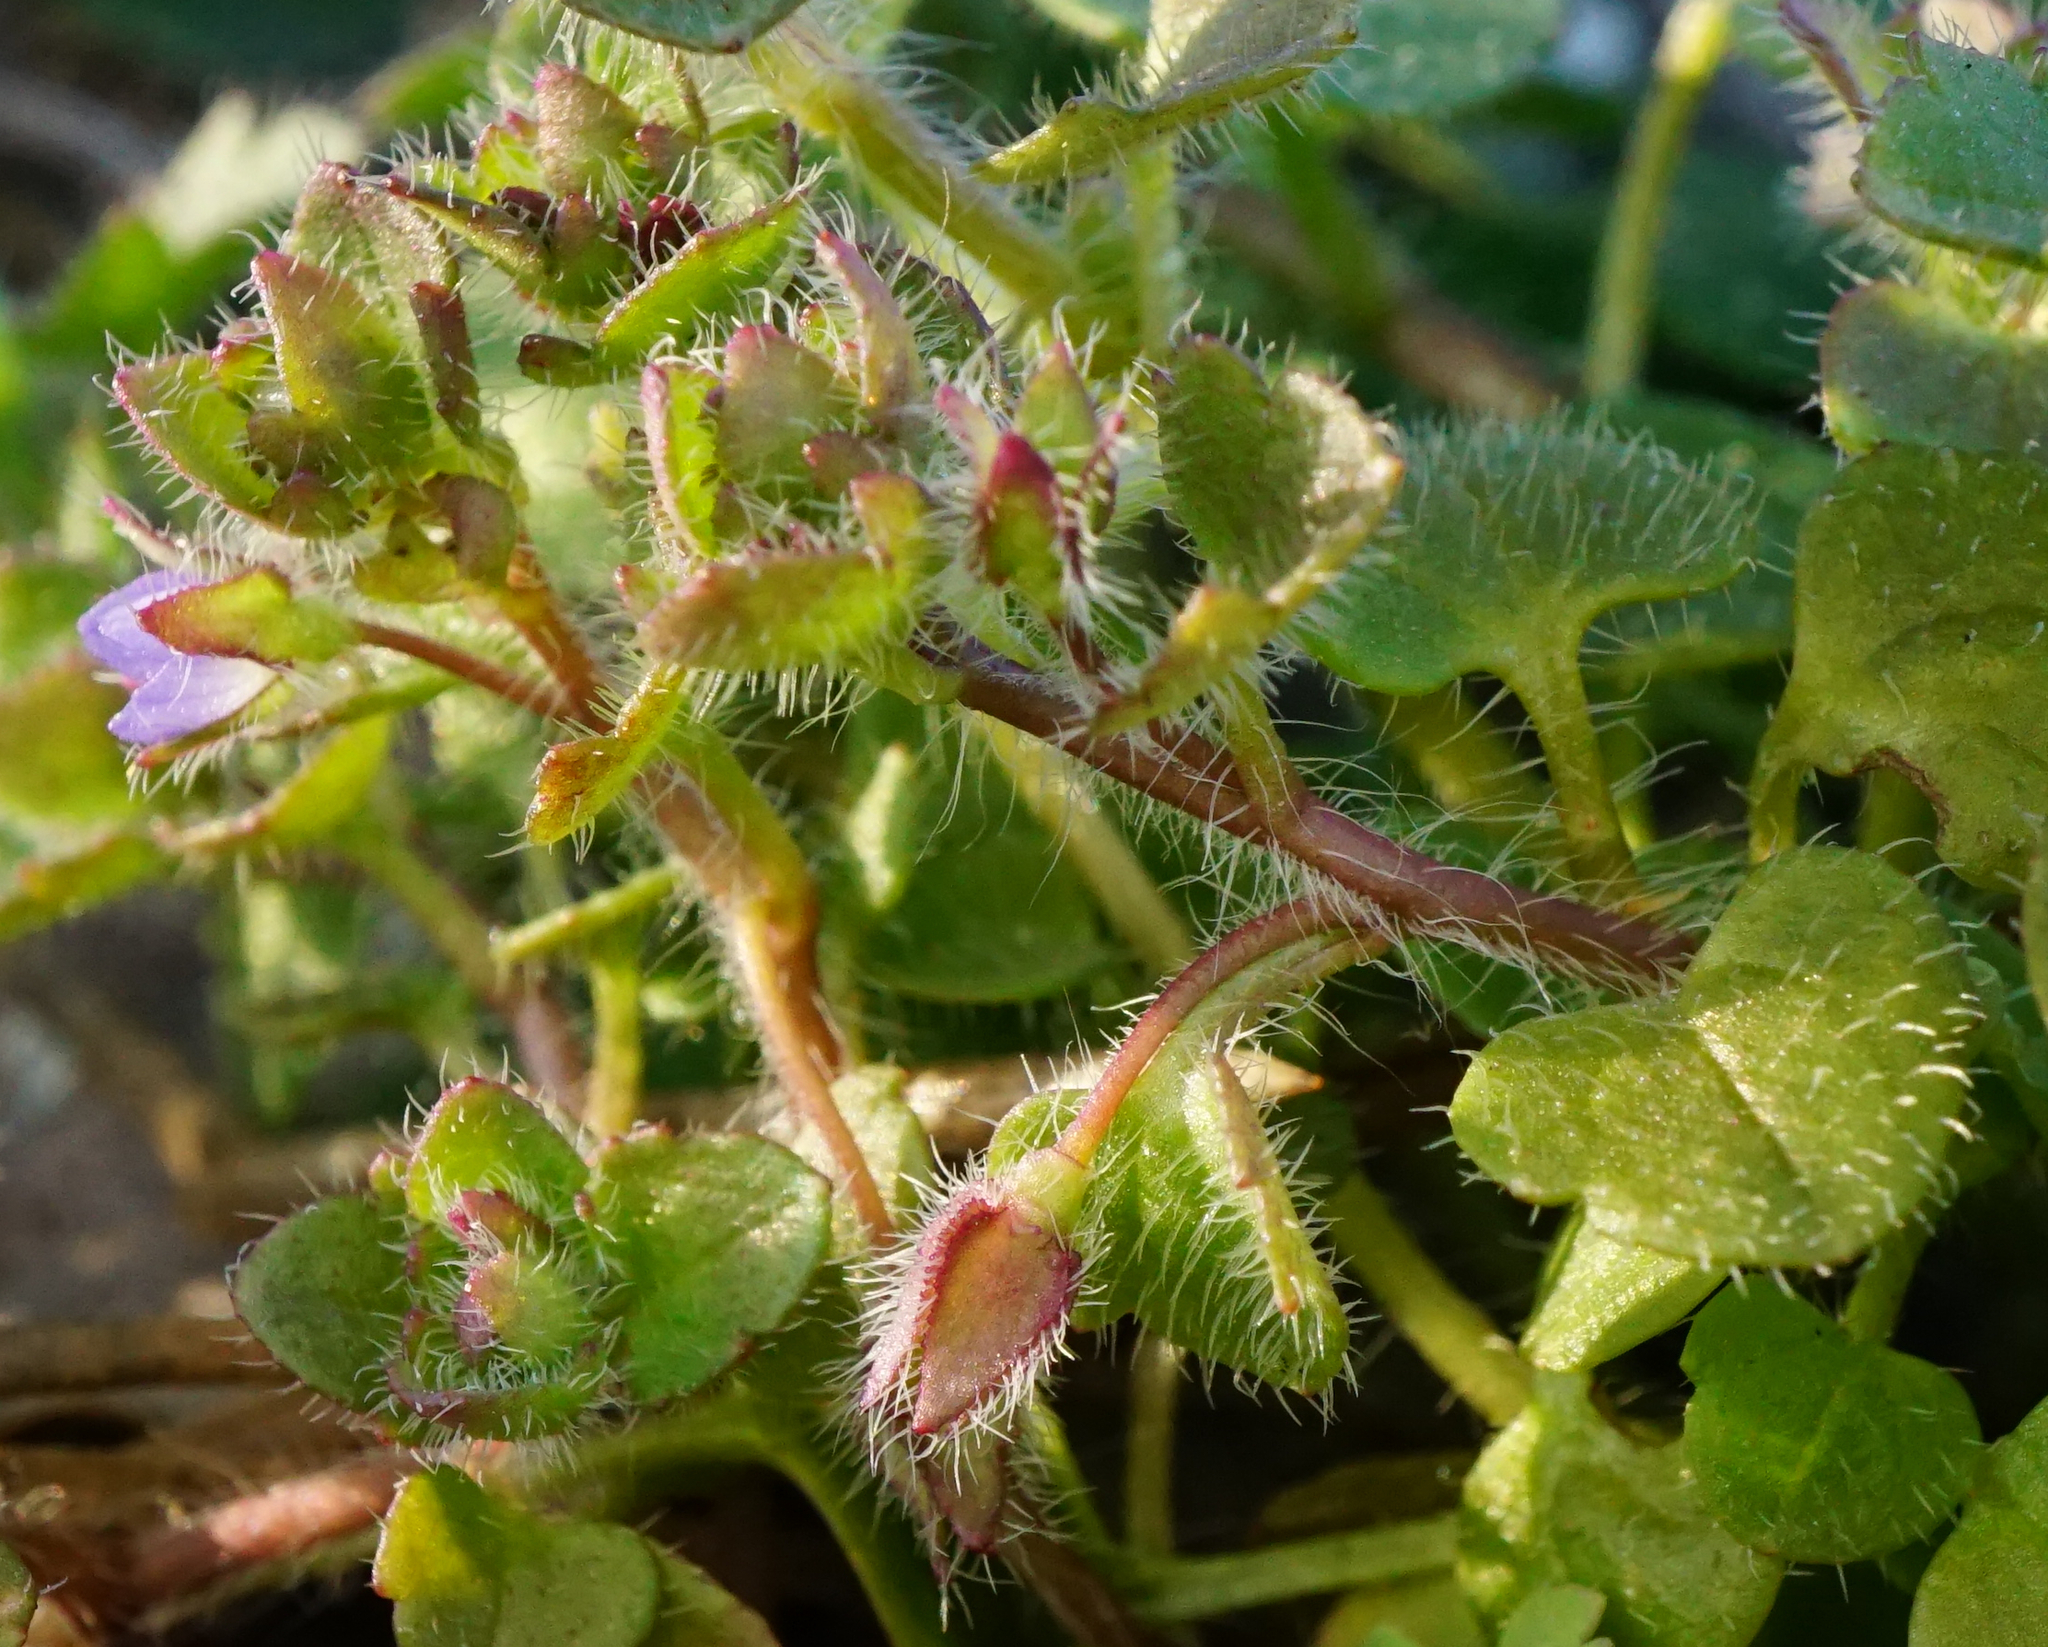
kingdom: Plantae
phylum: Tracheophyta
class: Magnoliopsida
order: Lamiales
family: Plantaginaceae
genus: Veronica
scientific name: Veronica hederifolia
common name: Ivy-leaved speedwell
